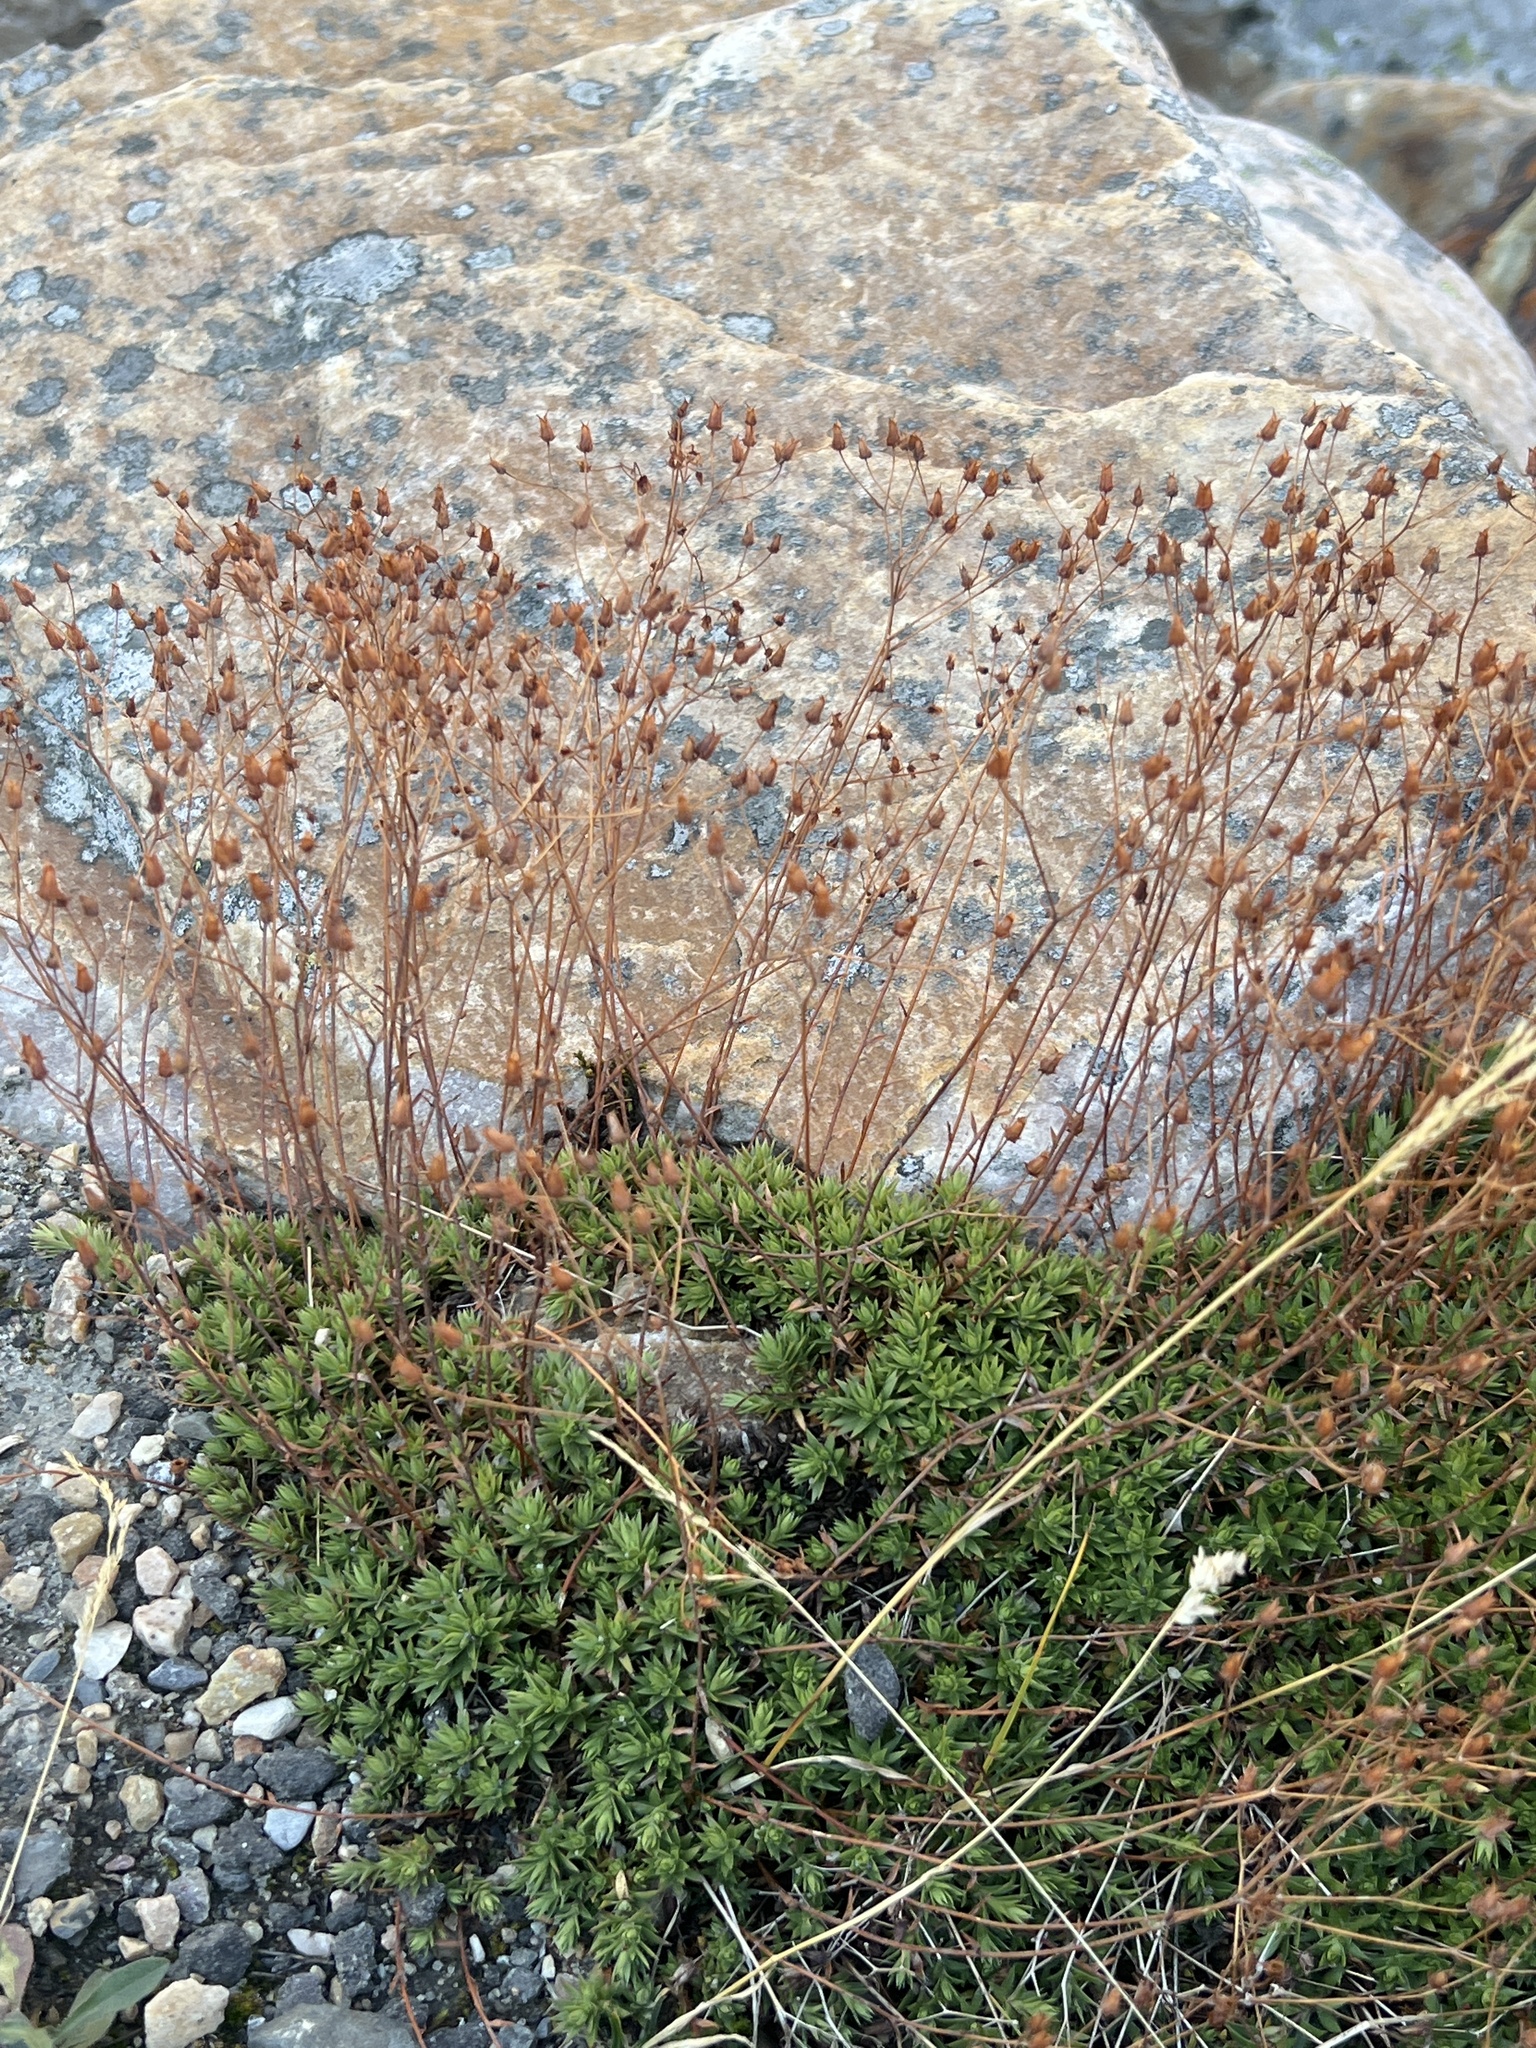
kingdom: Plantae
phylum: Tracheophyta
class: Magnoliopsida
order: Saxifragales
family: Saxifragaceae
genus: Saxifraga
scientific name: Saxifraga bronchialis
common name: Matted saxifrage
